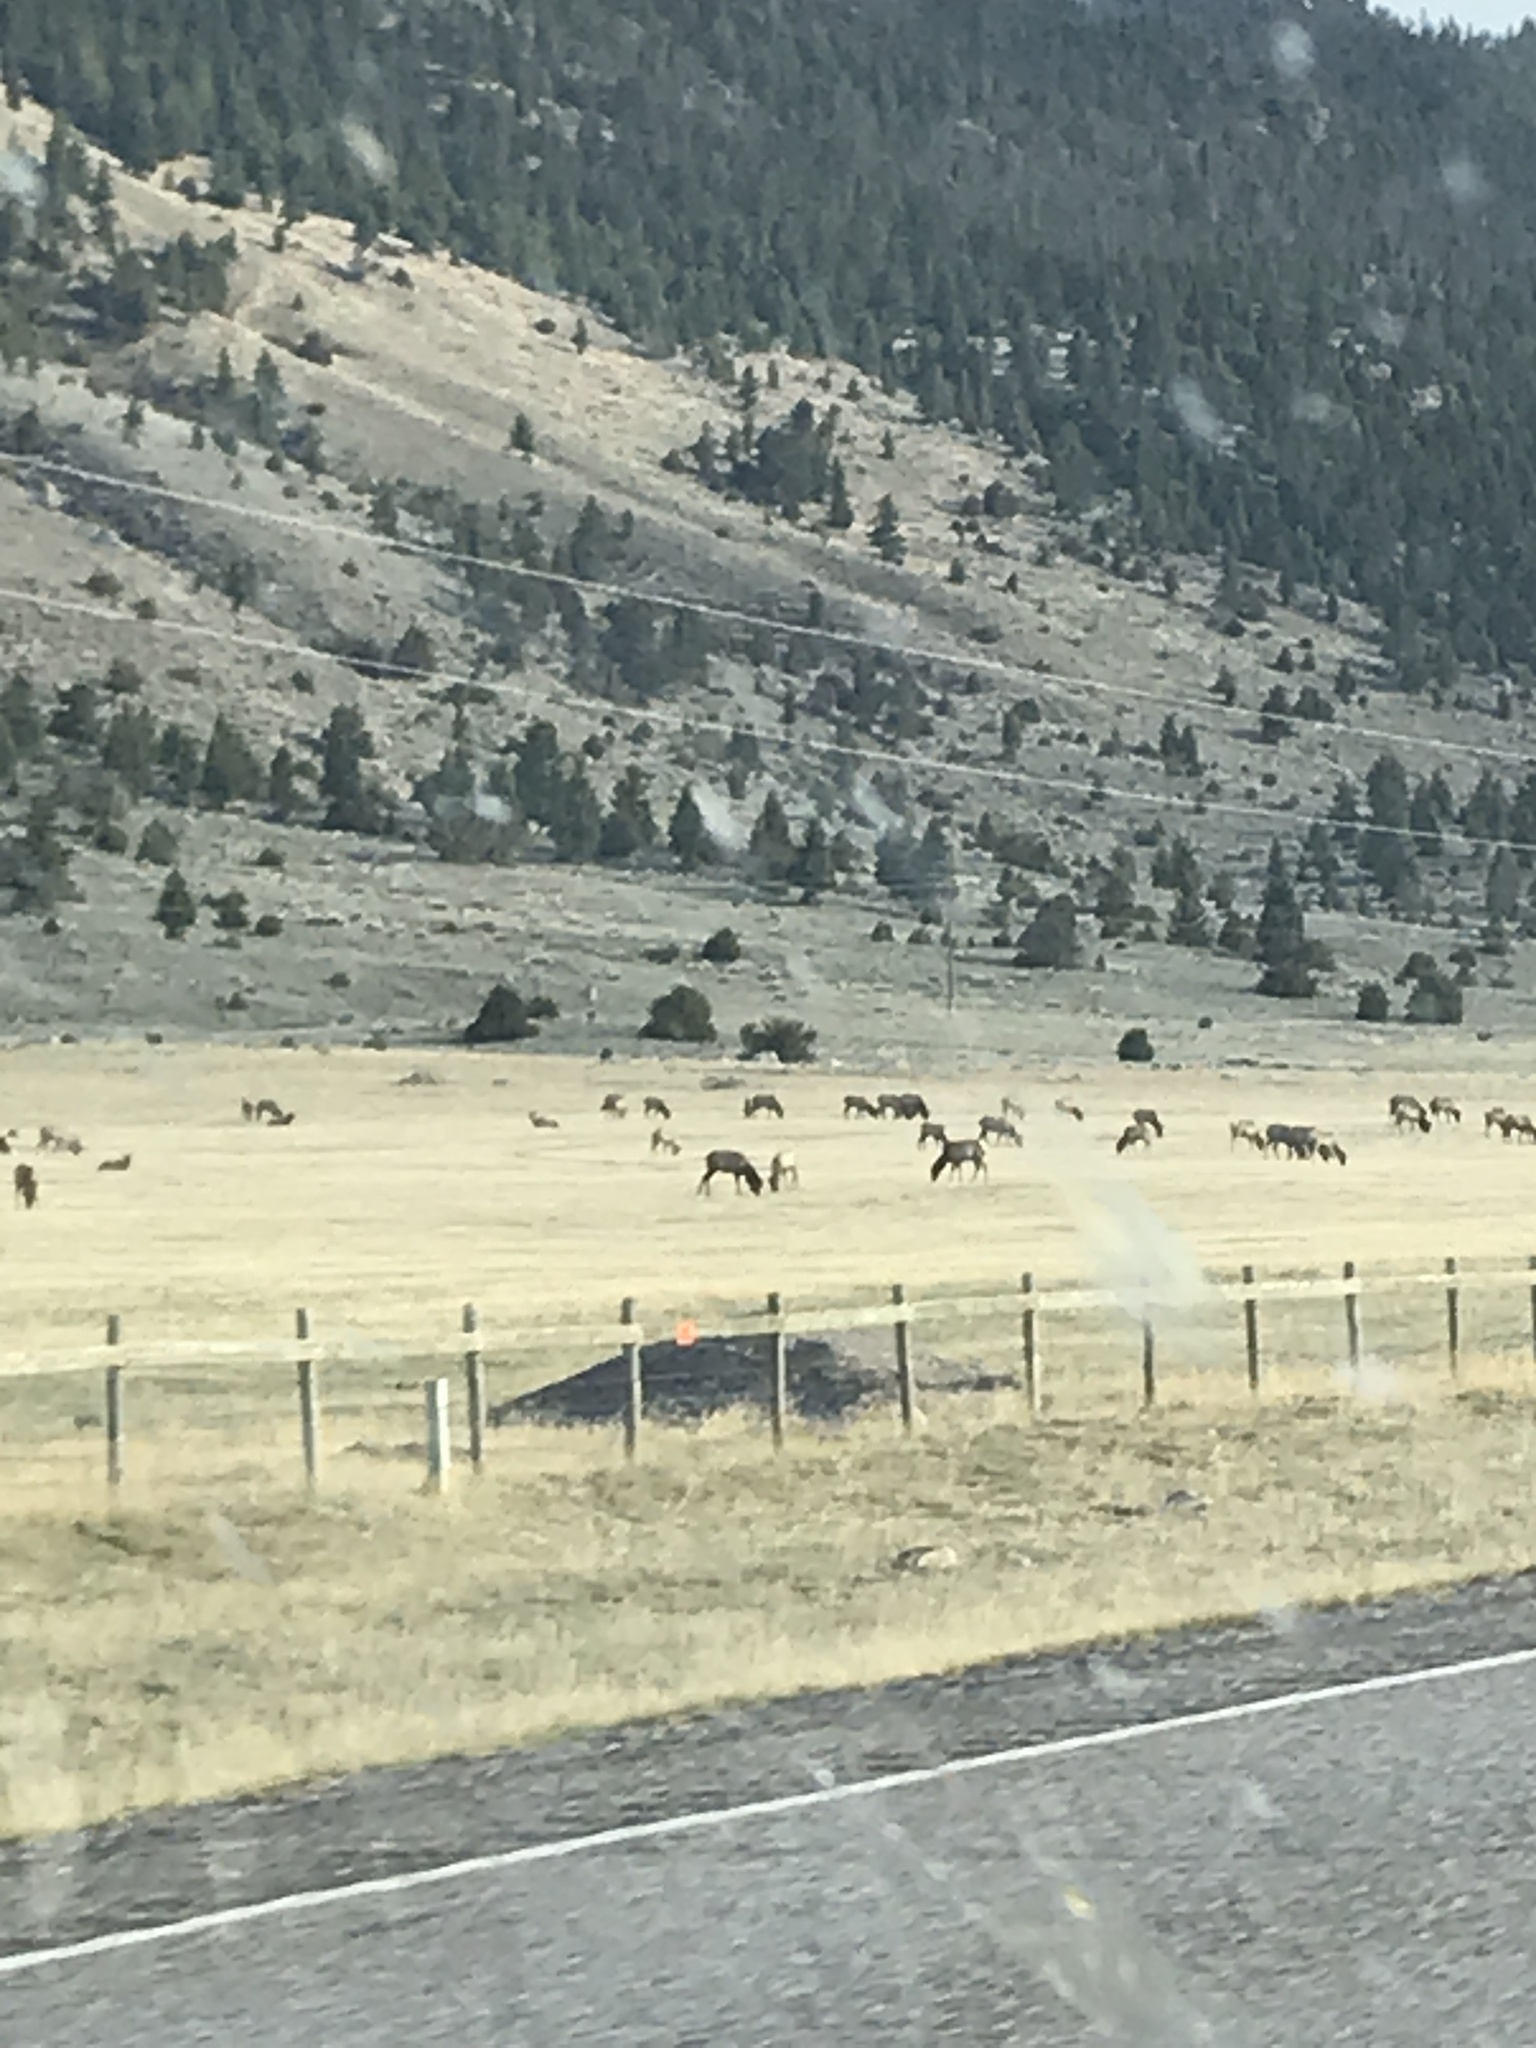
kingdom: Animalia
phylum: Chordata
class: Mammalia
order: Artiodactyla
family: Cervidae
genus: Cervus
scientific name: Cervus elaphus
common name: Red deer
